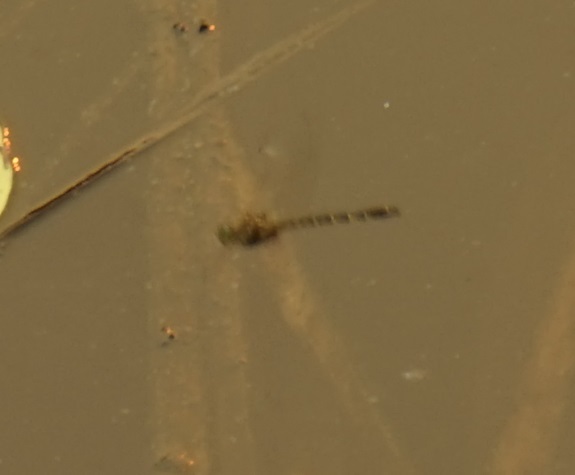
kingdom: Animalia
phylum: Arthropoda
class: Insecta
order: Odonata
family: Corduliidae
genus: Hemicordulia
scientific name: Hemicordulia australiae
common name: Sentry dragonfly
